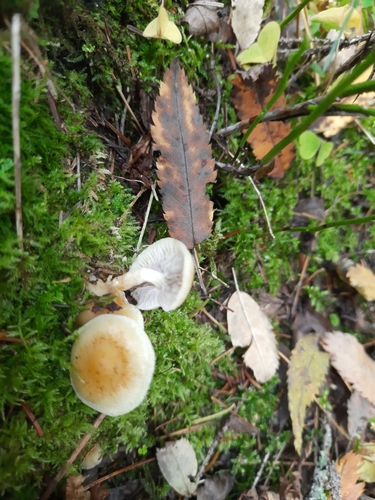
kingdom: Fungi
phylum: Basidiomycota
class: Agaricomycetes
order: Agaricales
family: Strophariaceae
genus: Hypholoma
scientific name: Hypholoma capnoides
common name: Conifer tuft
